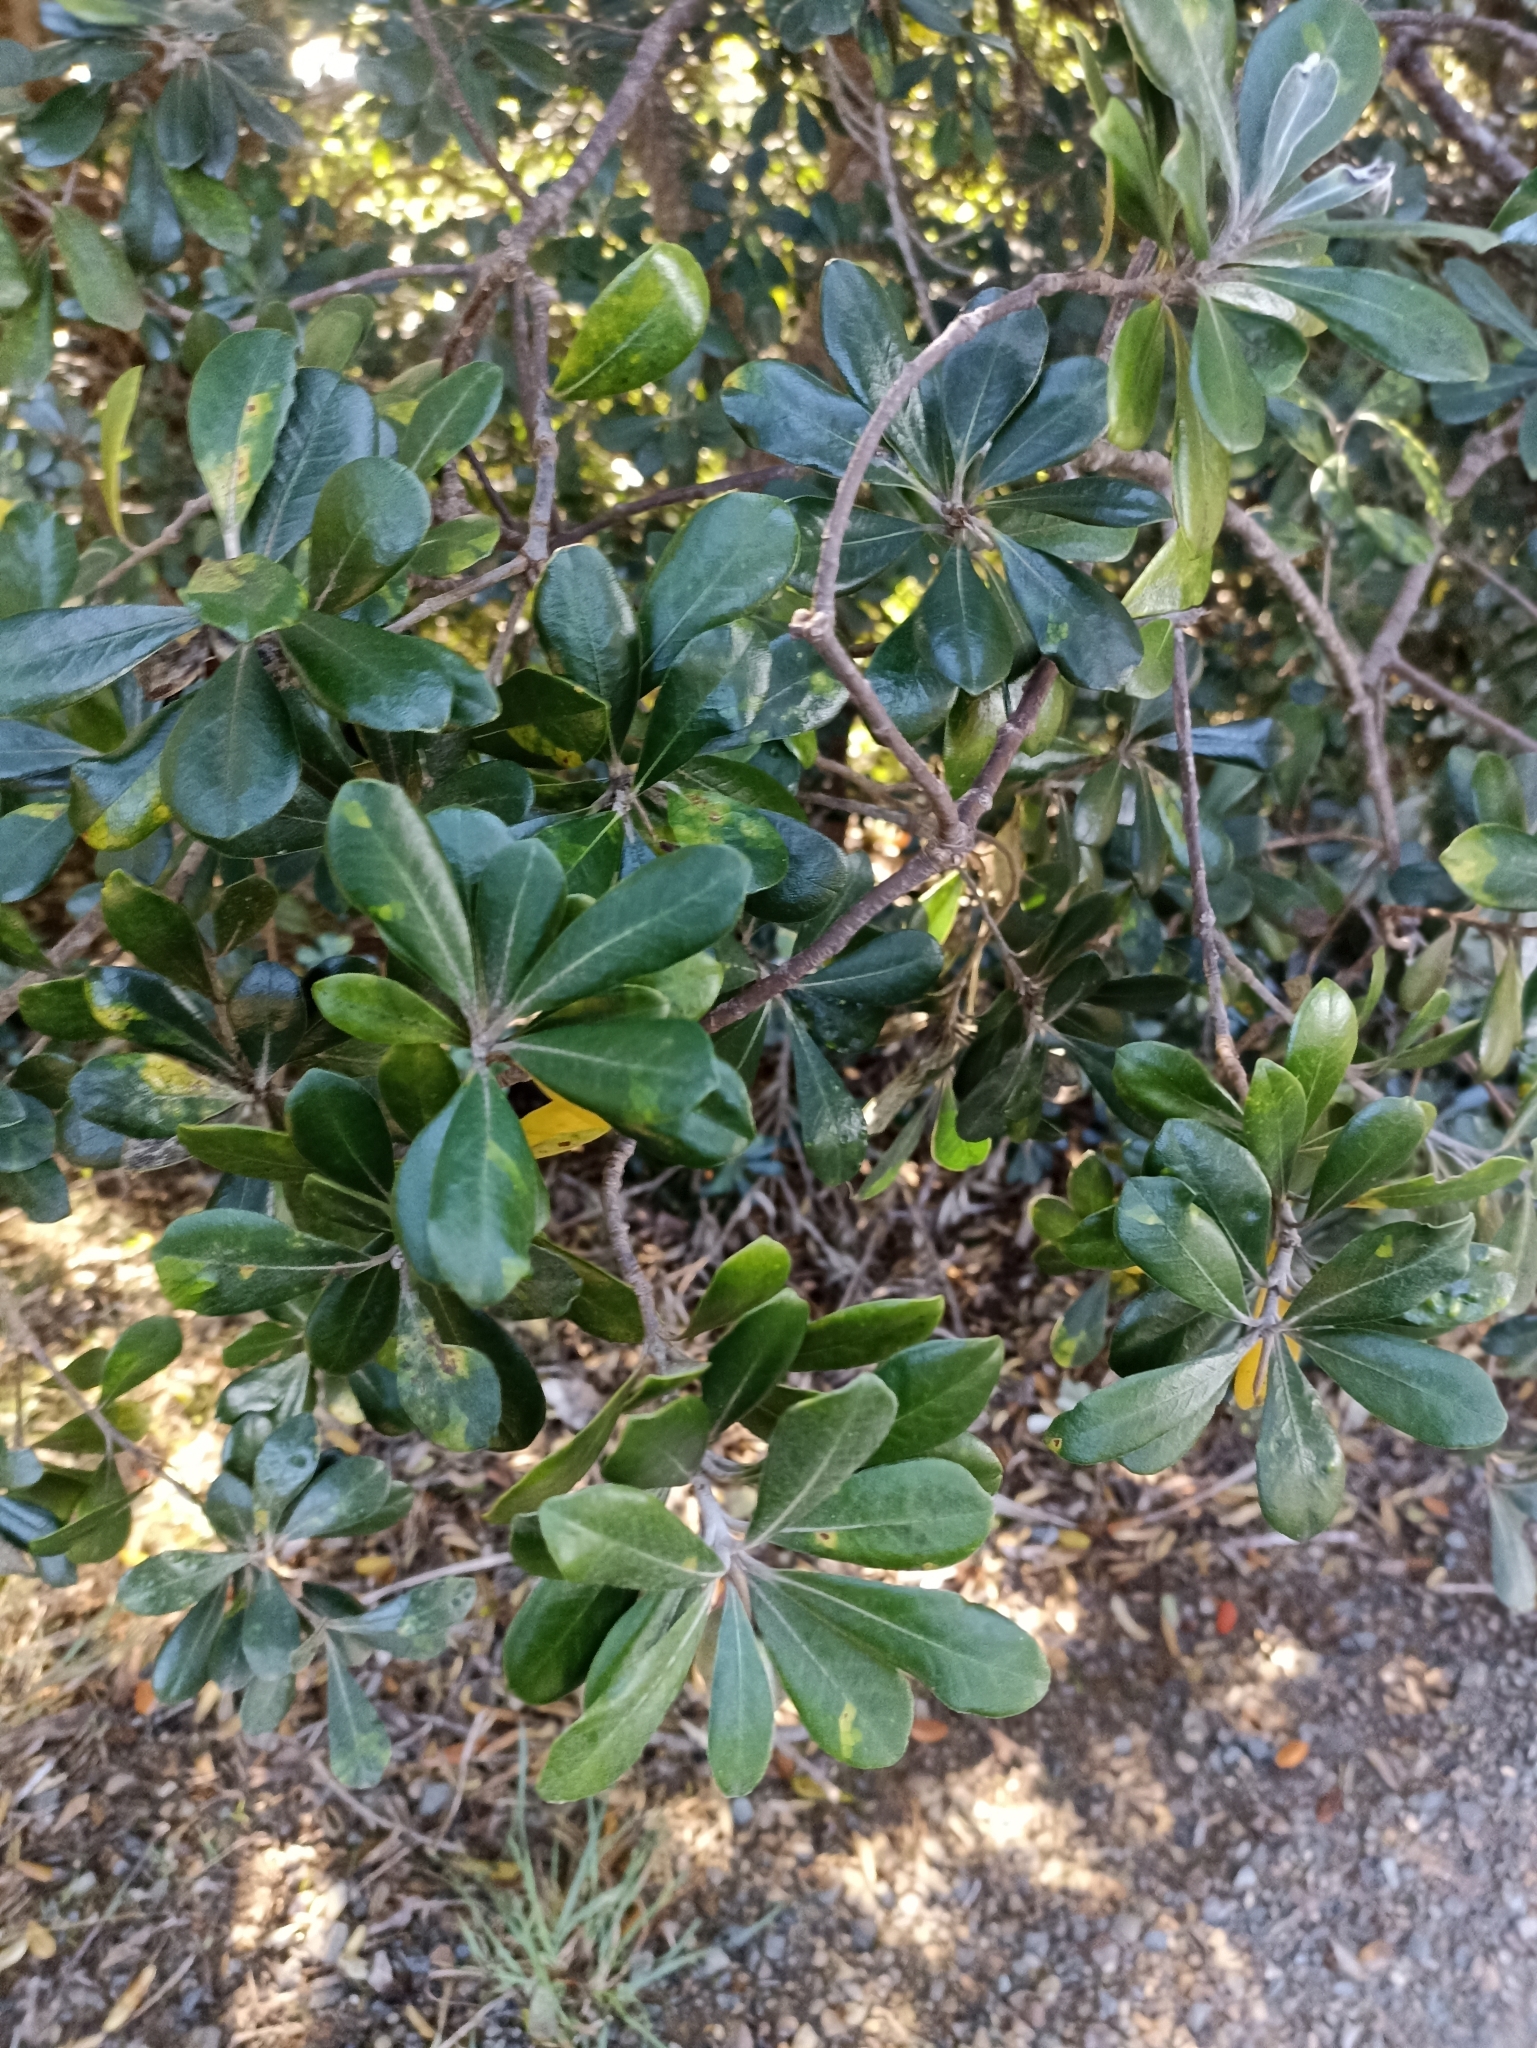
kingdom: Plantae
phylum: Tracheophyta
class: Magnoliopsida
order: Apiales
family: Pittosporaceae
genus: Pittosporum
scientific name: Pittosporum crassifolium
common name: Karo
